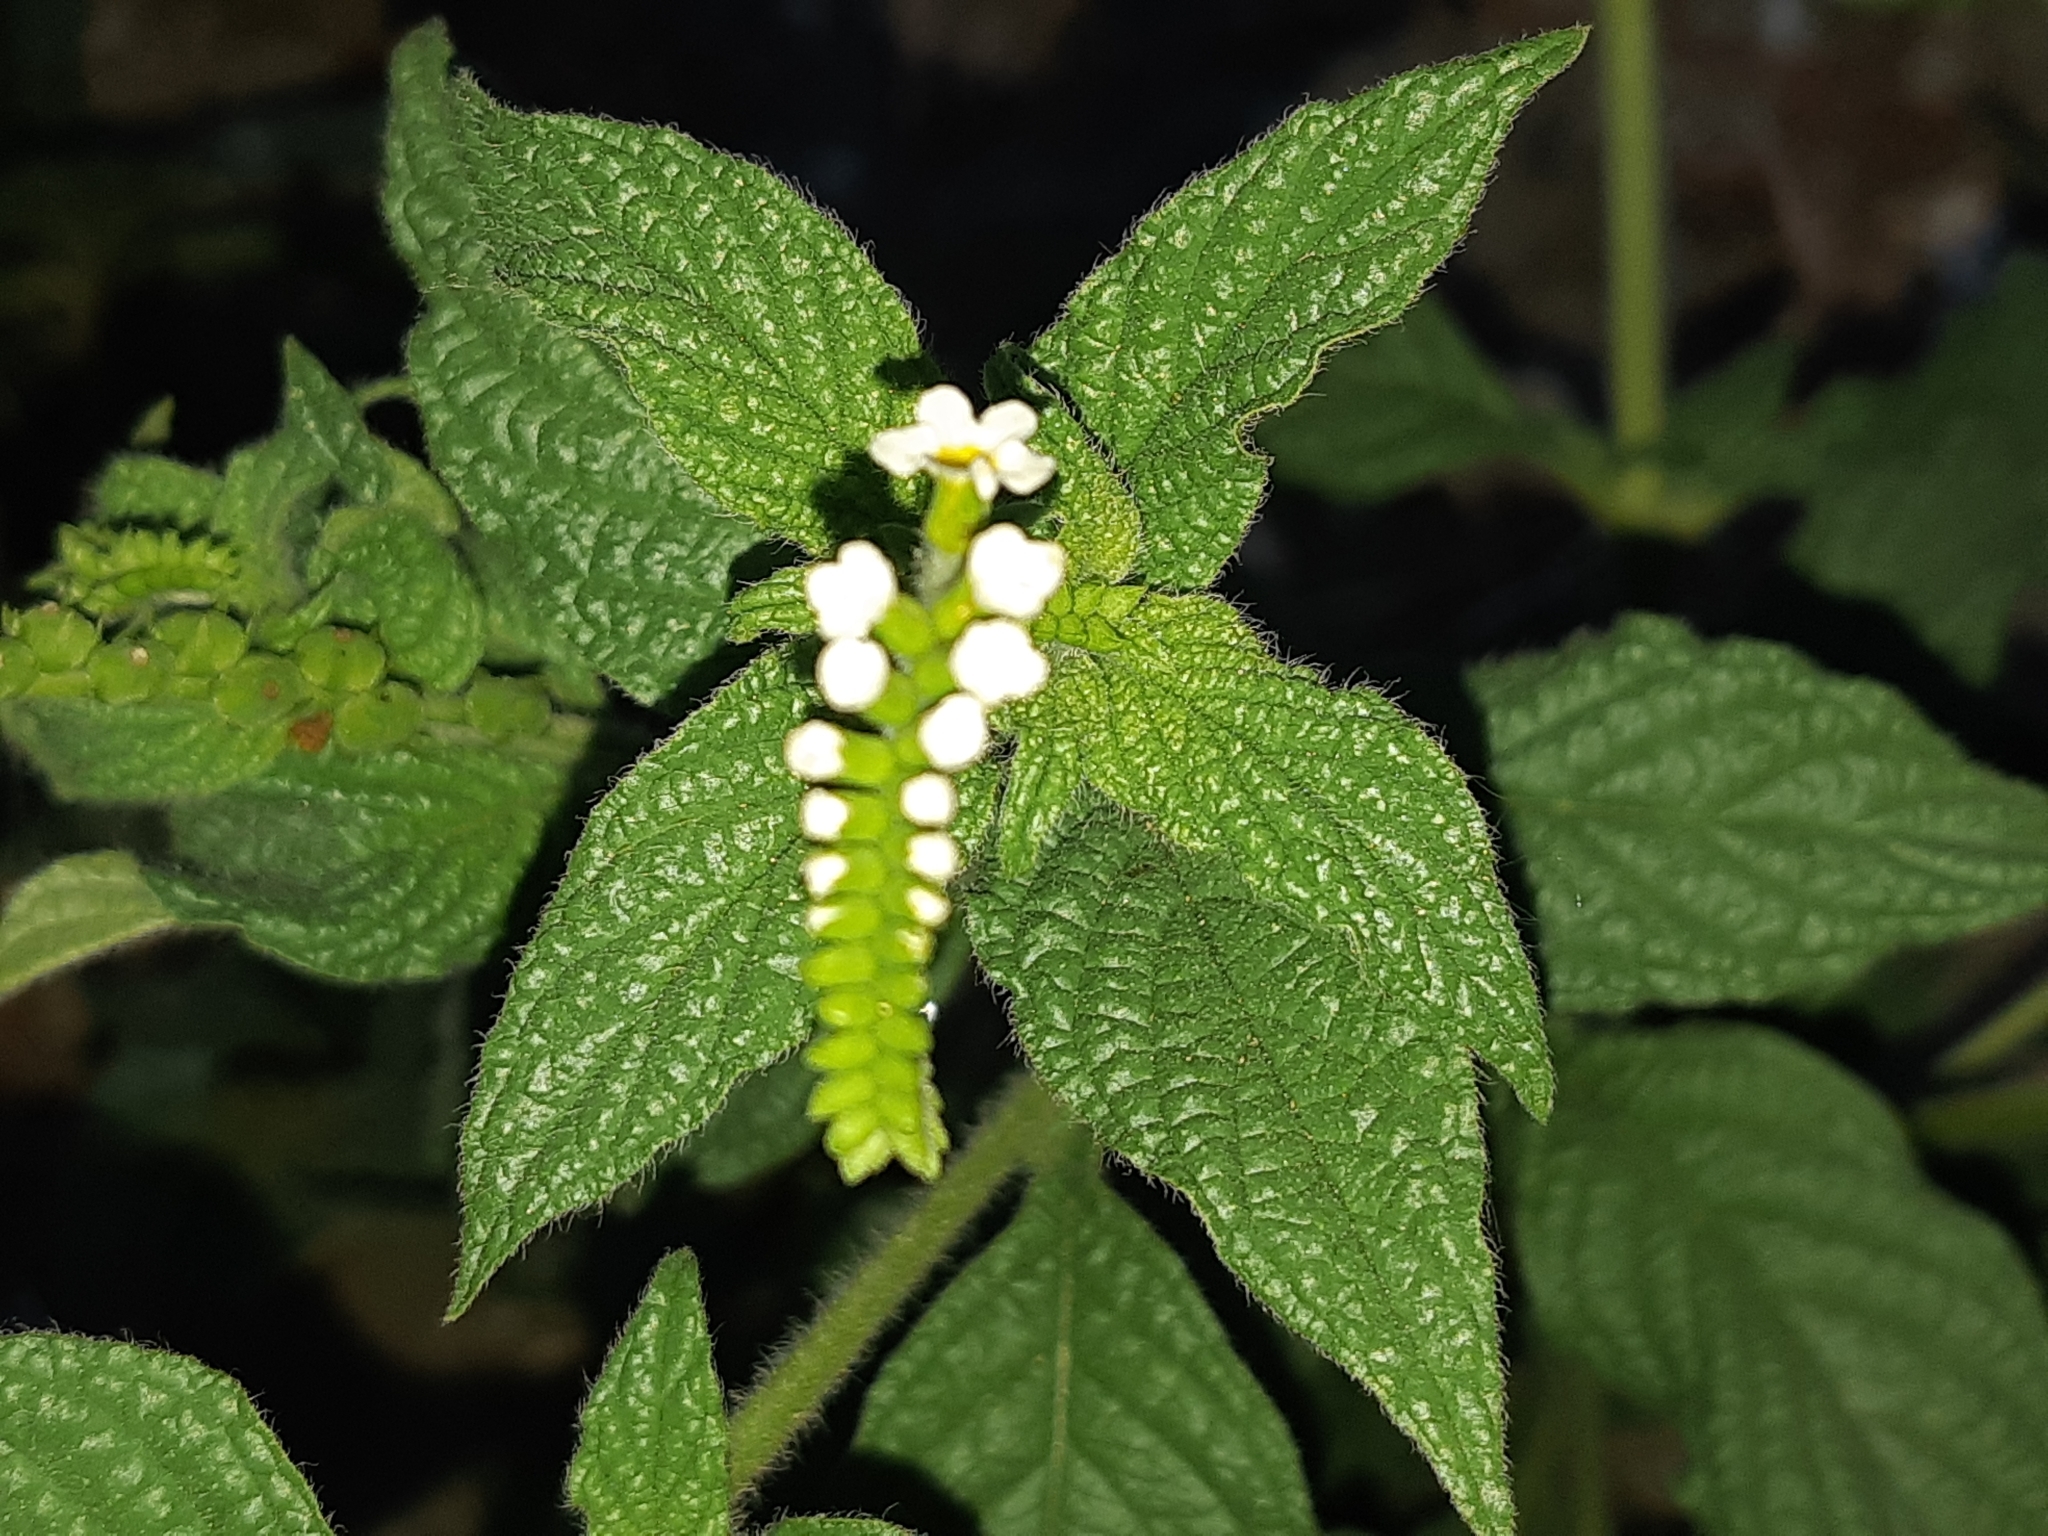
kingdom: Plantae
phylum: Tracheophyta
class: Magnoliopsida
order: Boraginales
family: Heliotropiaceae
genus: Heliotropium
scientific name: Heliotropium angiospermum
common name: Eye bright
